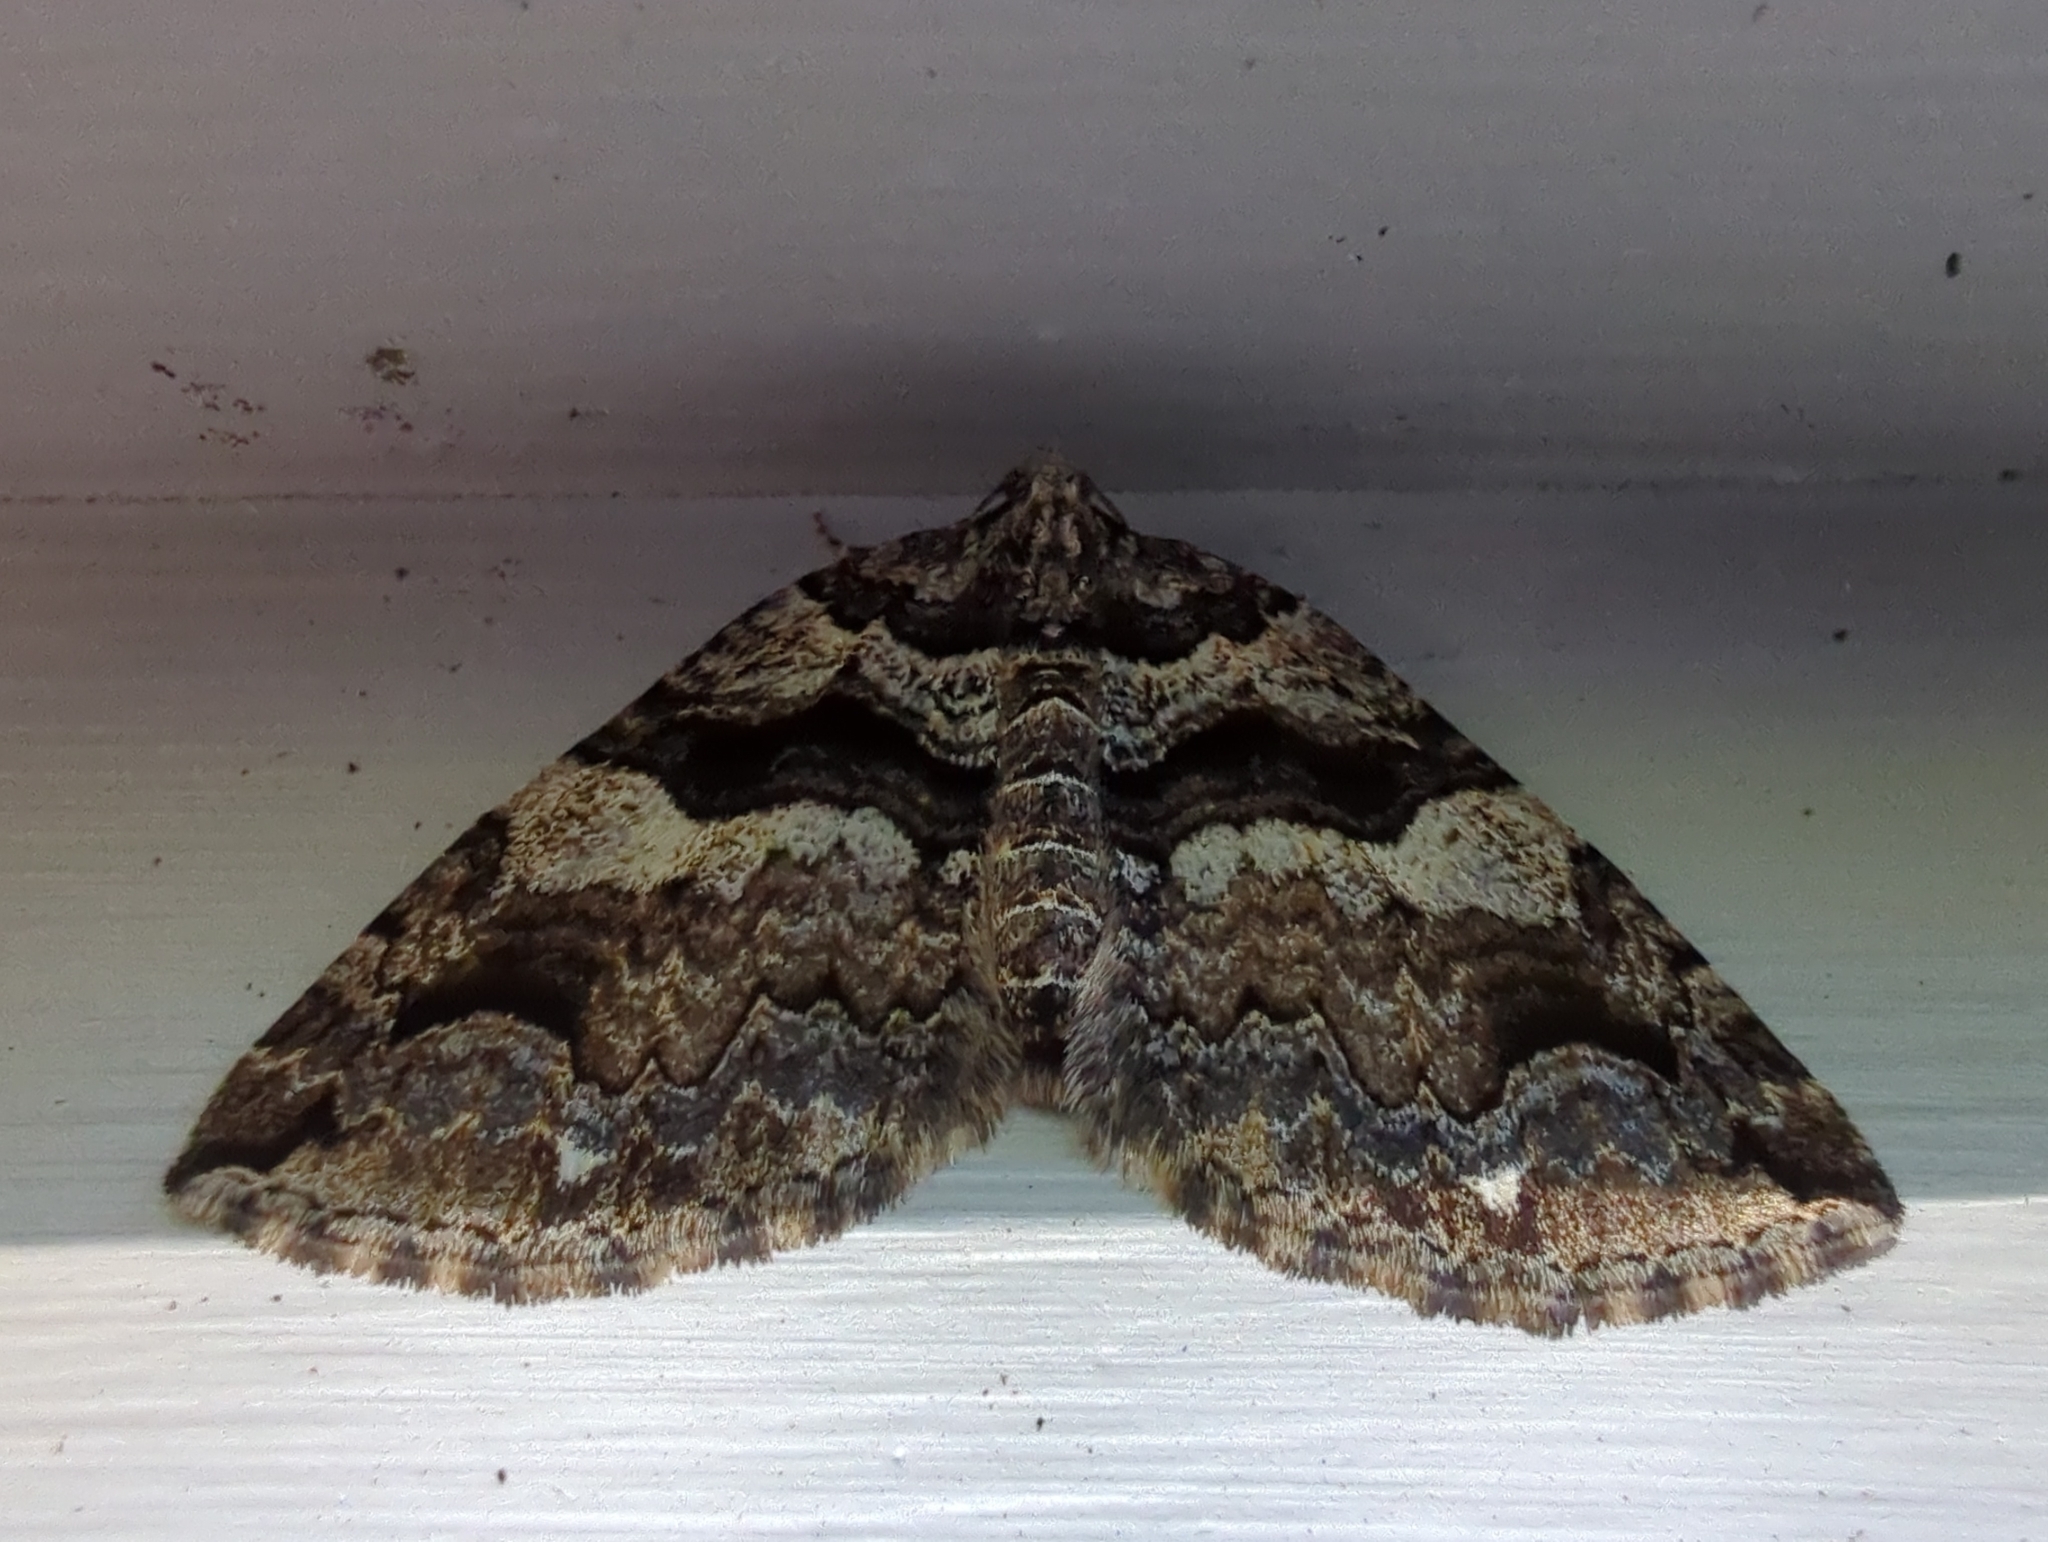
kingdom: Animalia
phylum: Arthropoda
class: Insecta
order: Lepidoptera
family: Geometridae
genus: Anticlea
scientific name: Anticlea vasiliata
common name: Variable carpet
